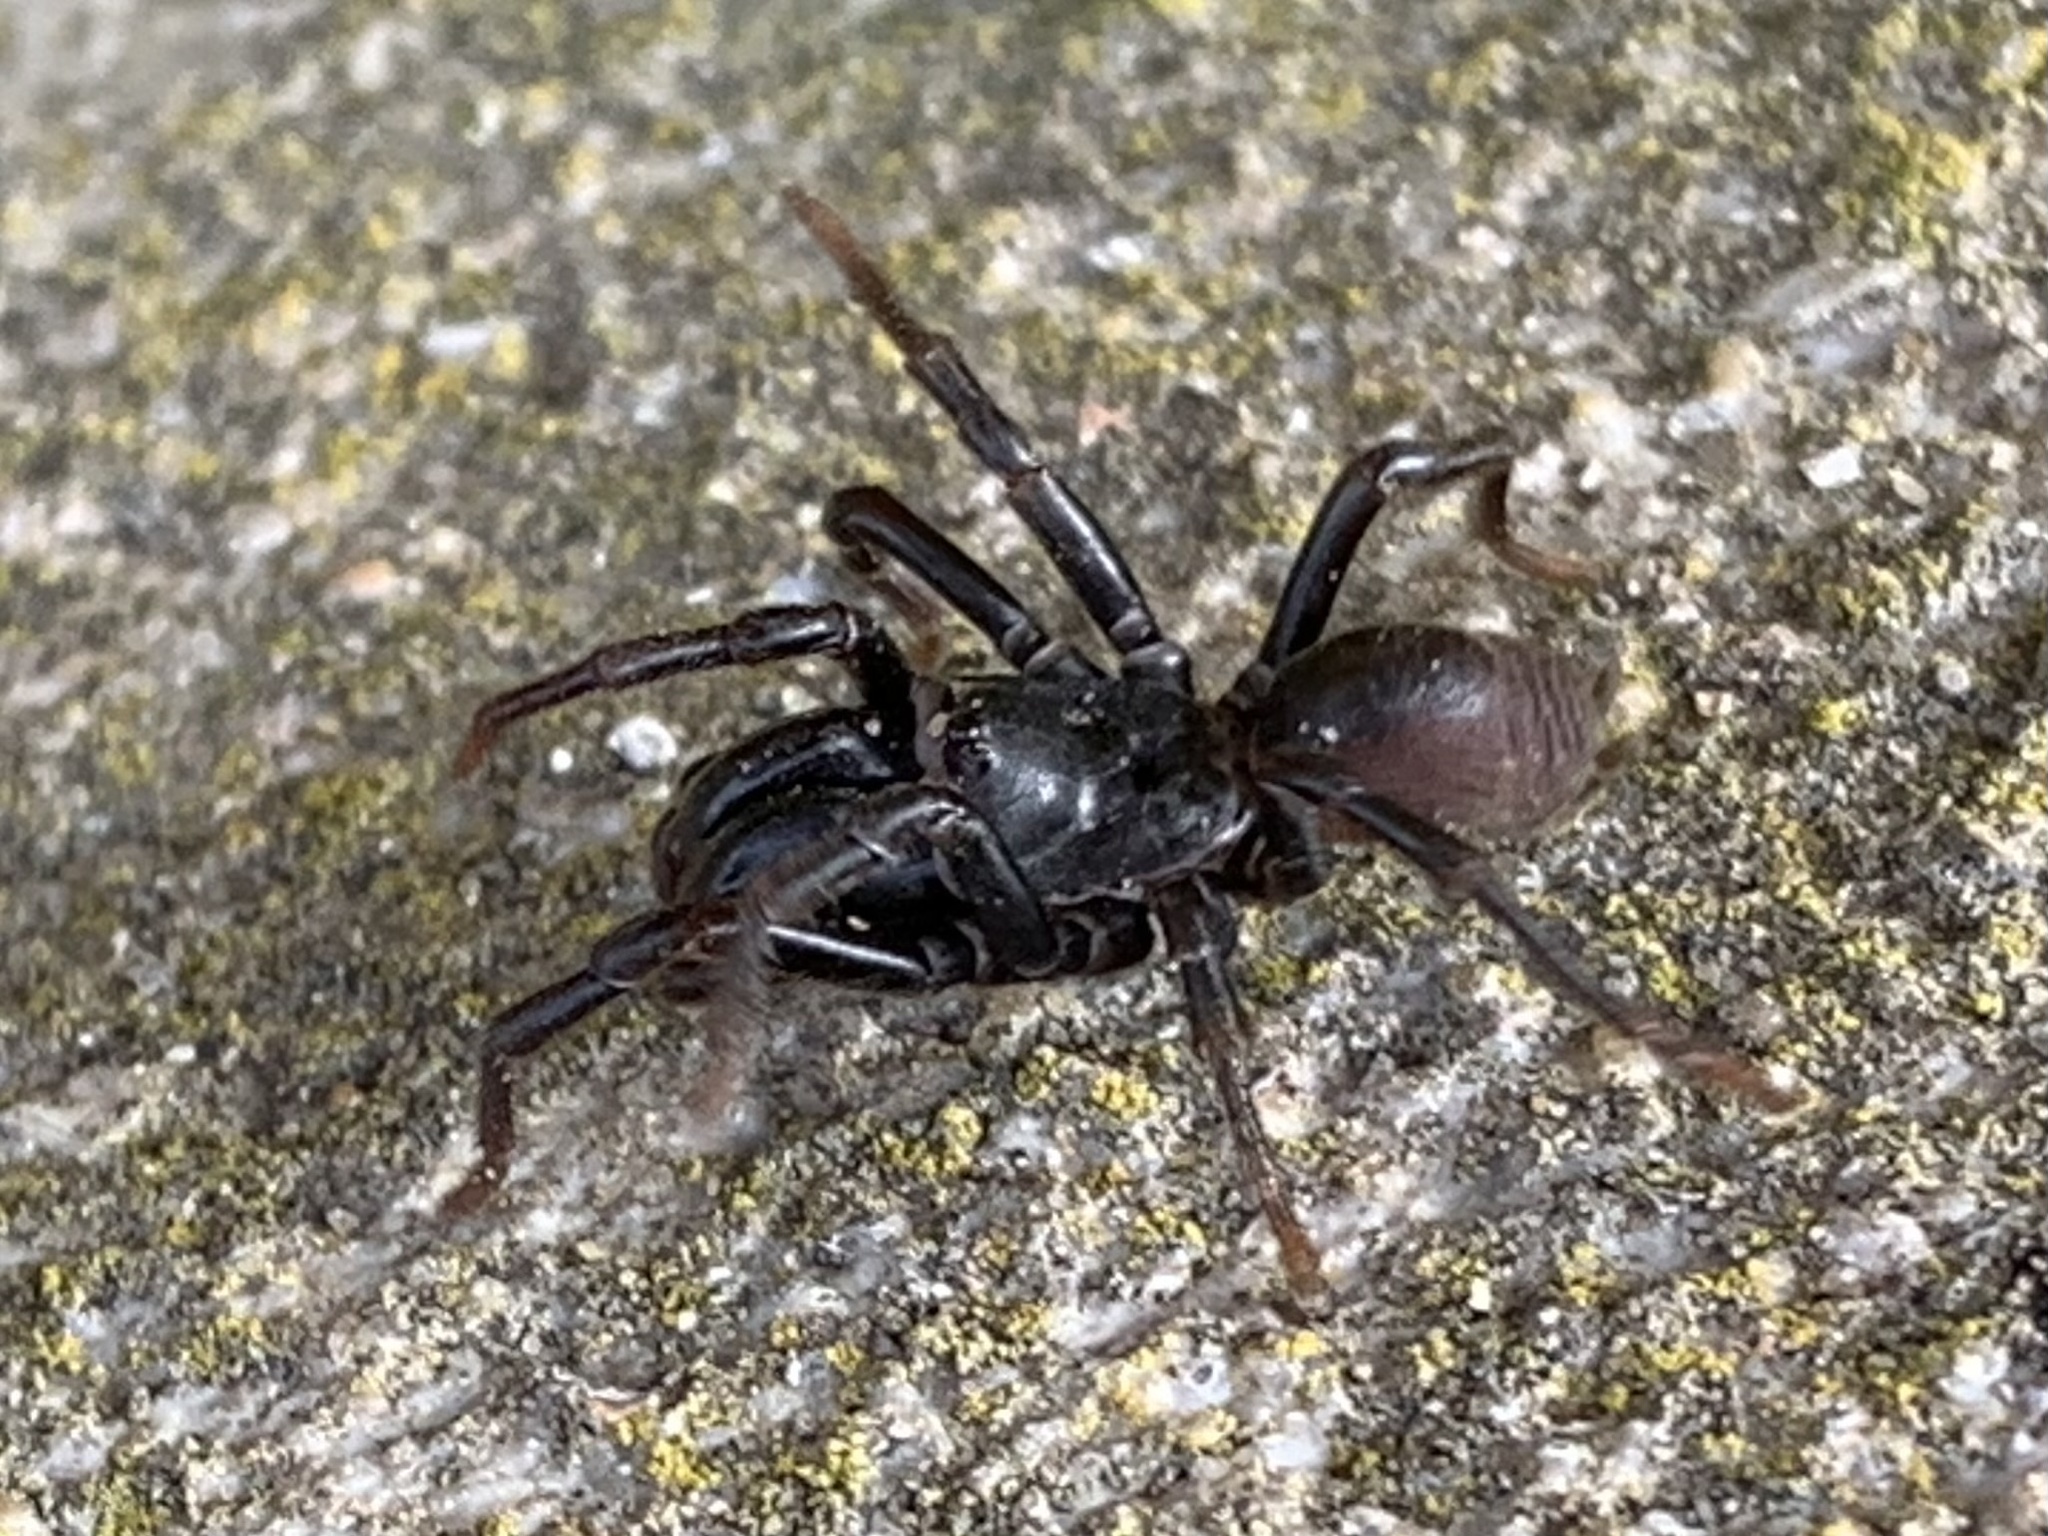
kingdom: Animalia
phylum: Arthropoda
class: Arachnida
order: Araneae
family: Atypidae
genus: Atypus
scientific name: Atypus
